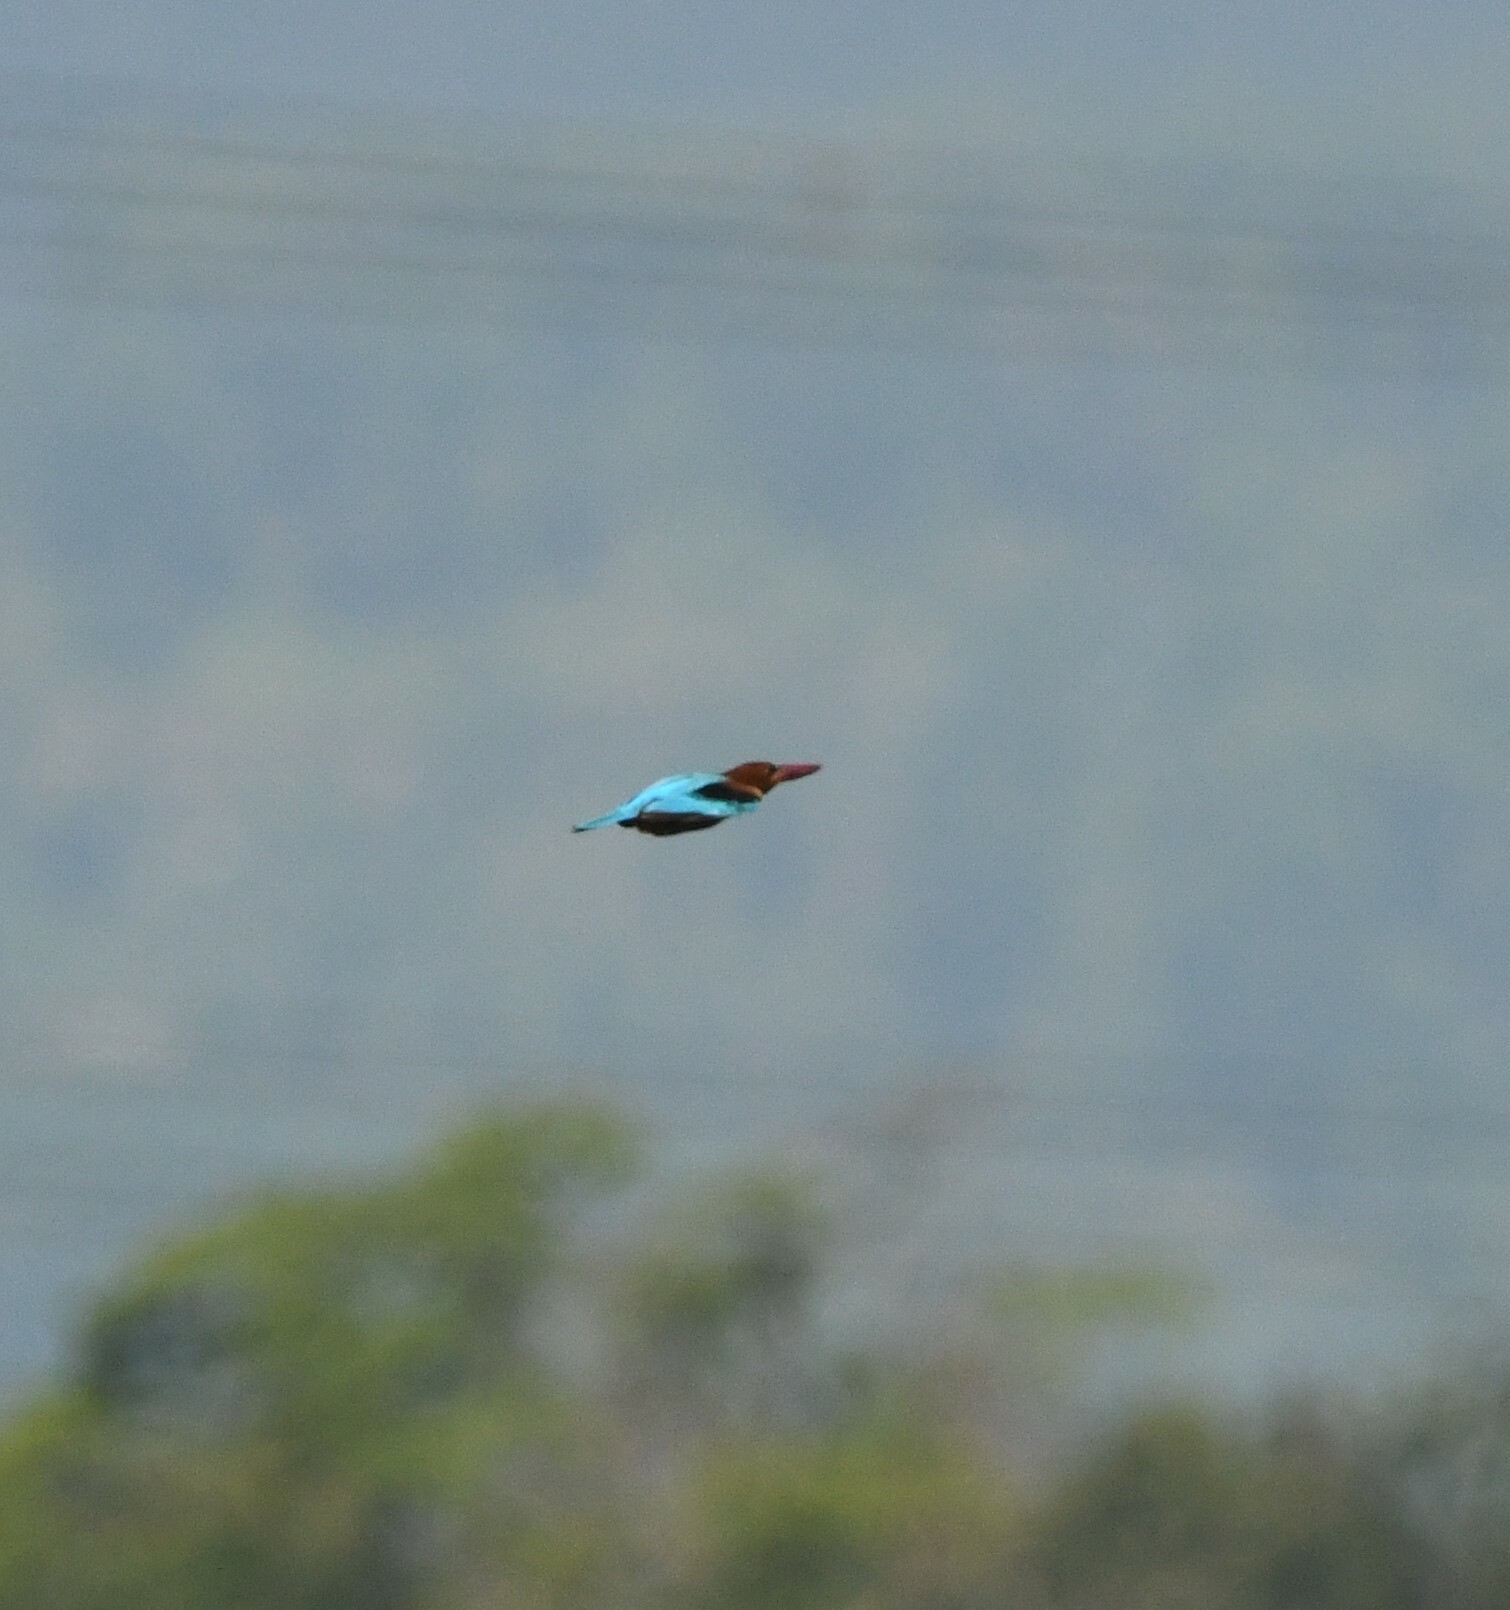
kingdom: Animalia
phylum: Chordata
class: Aves
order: Coraciiformes
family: Alcedinidae
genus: Halcyon
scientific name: Halcyon smyrnensis
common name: White-throated kingfisher
